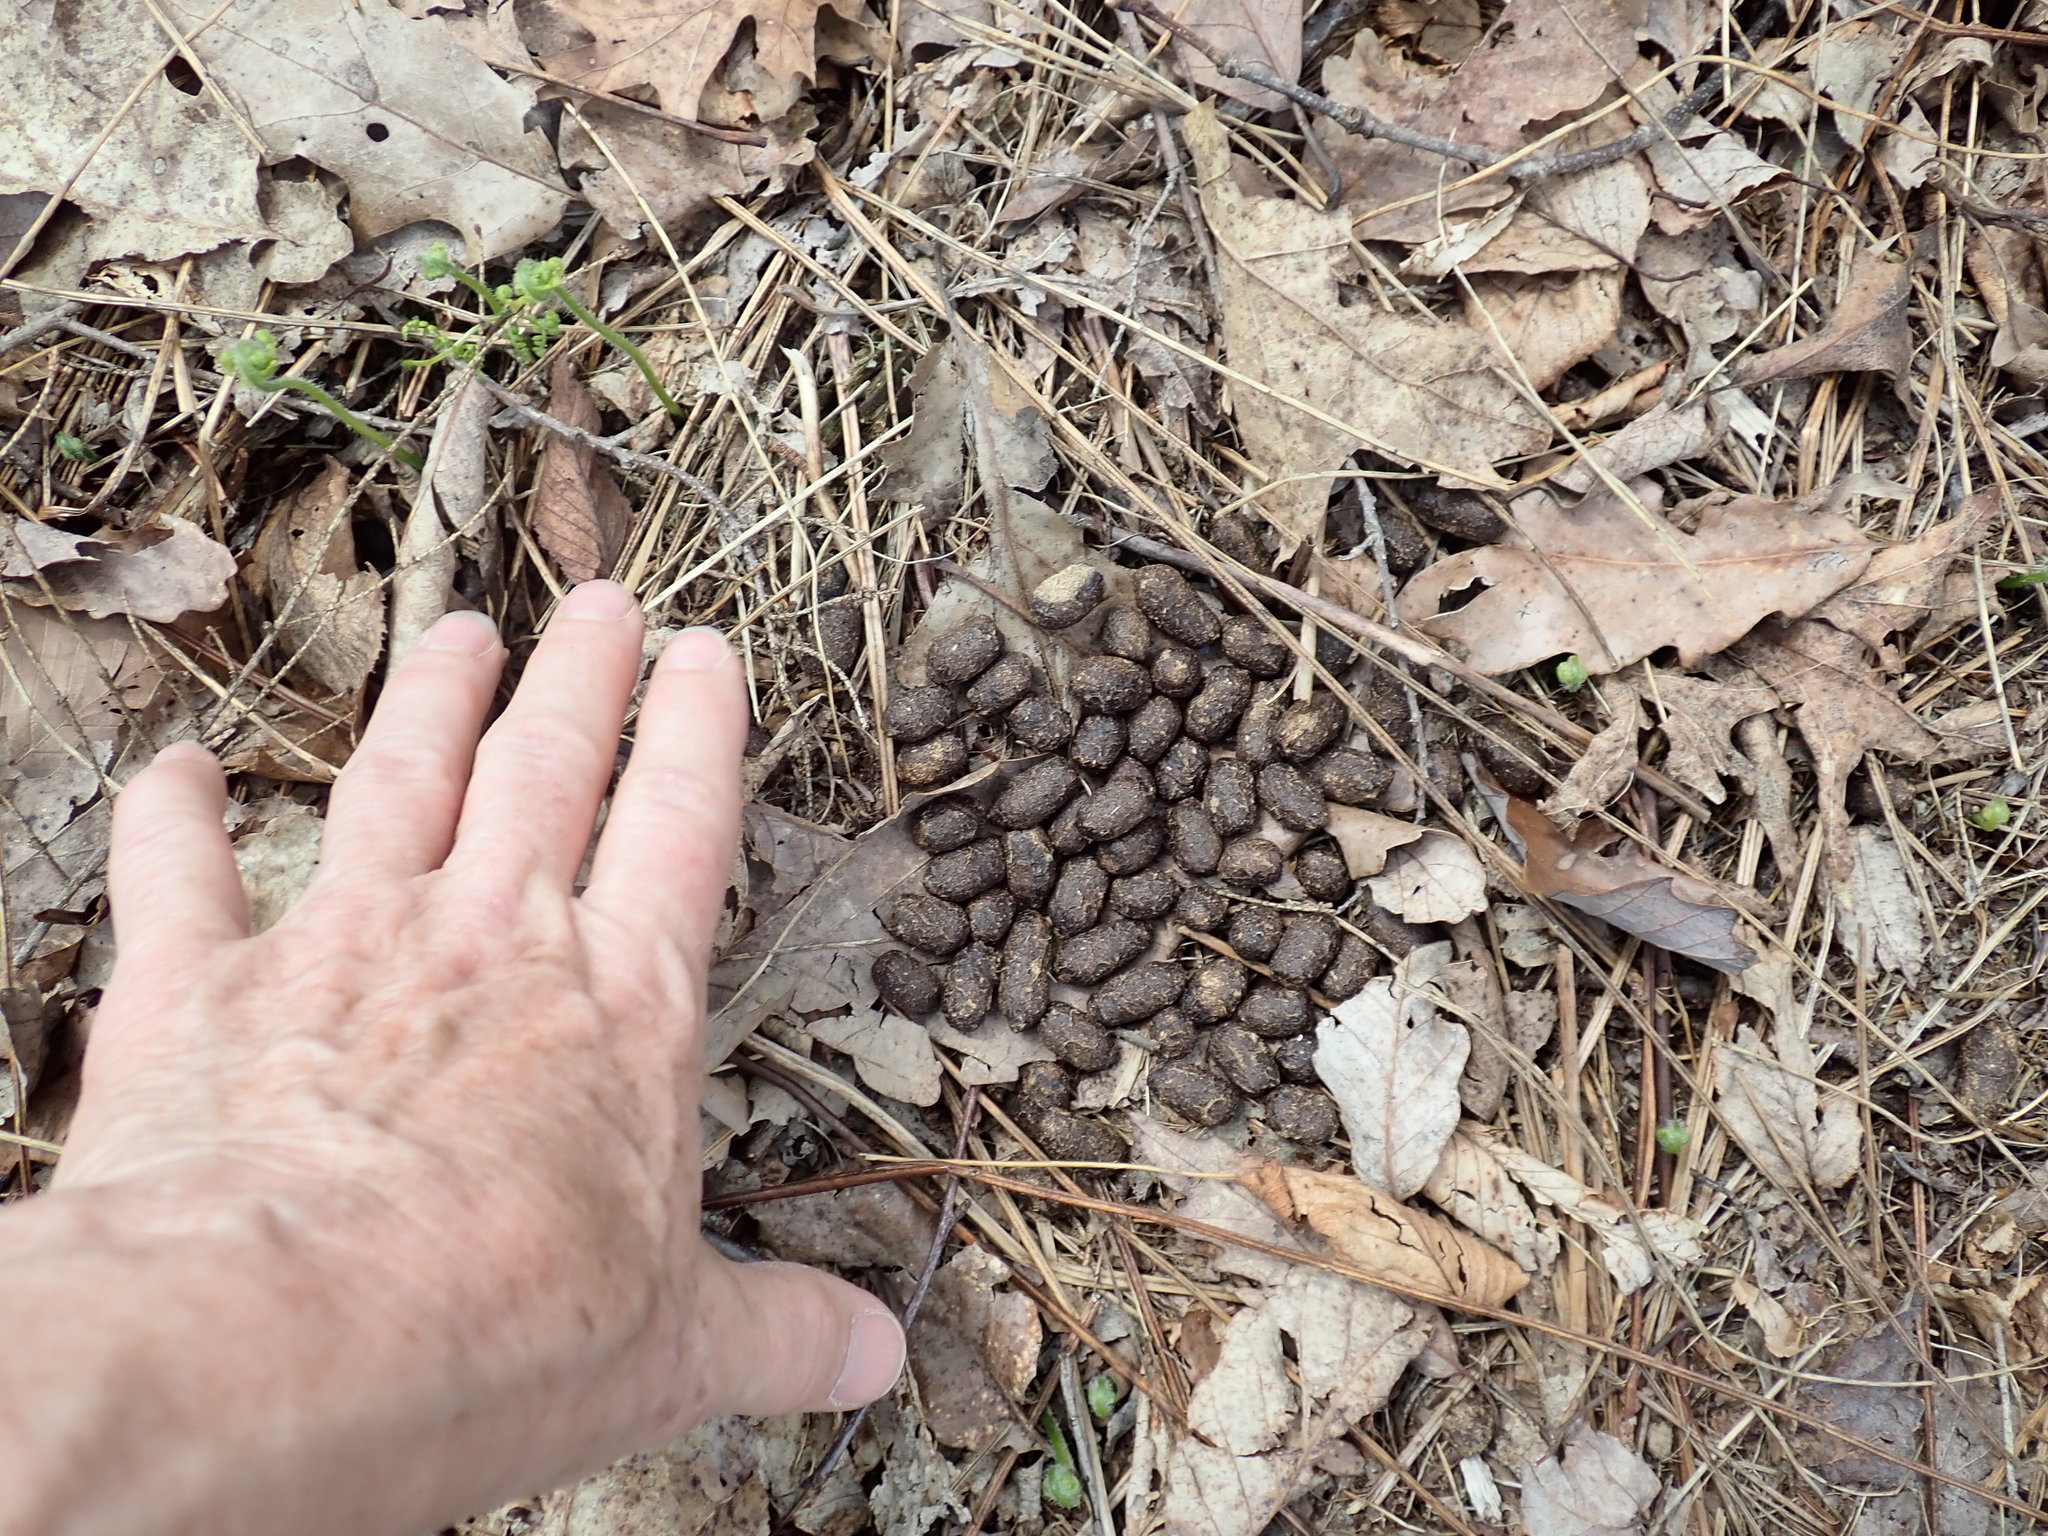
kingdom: Animalia
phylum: Chordata
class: Mammalia
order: Artiodactyla
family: Cervidae
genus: Odocoileus
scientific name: Odocoileus virginianus
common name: White-tailed deer
